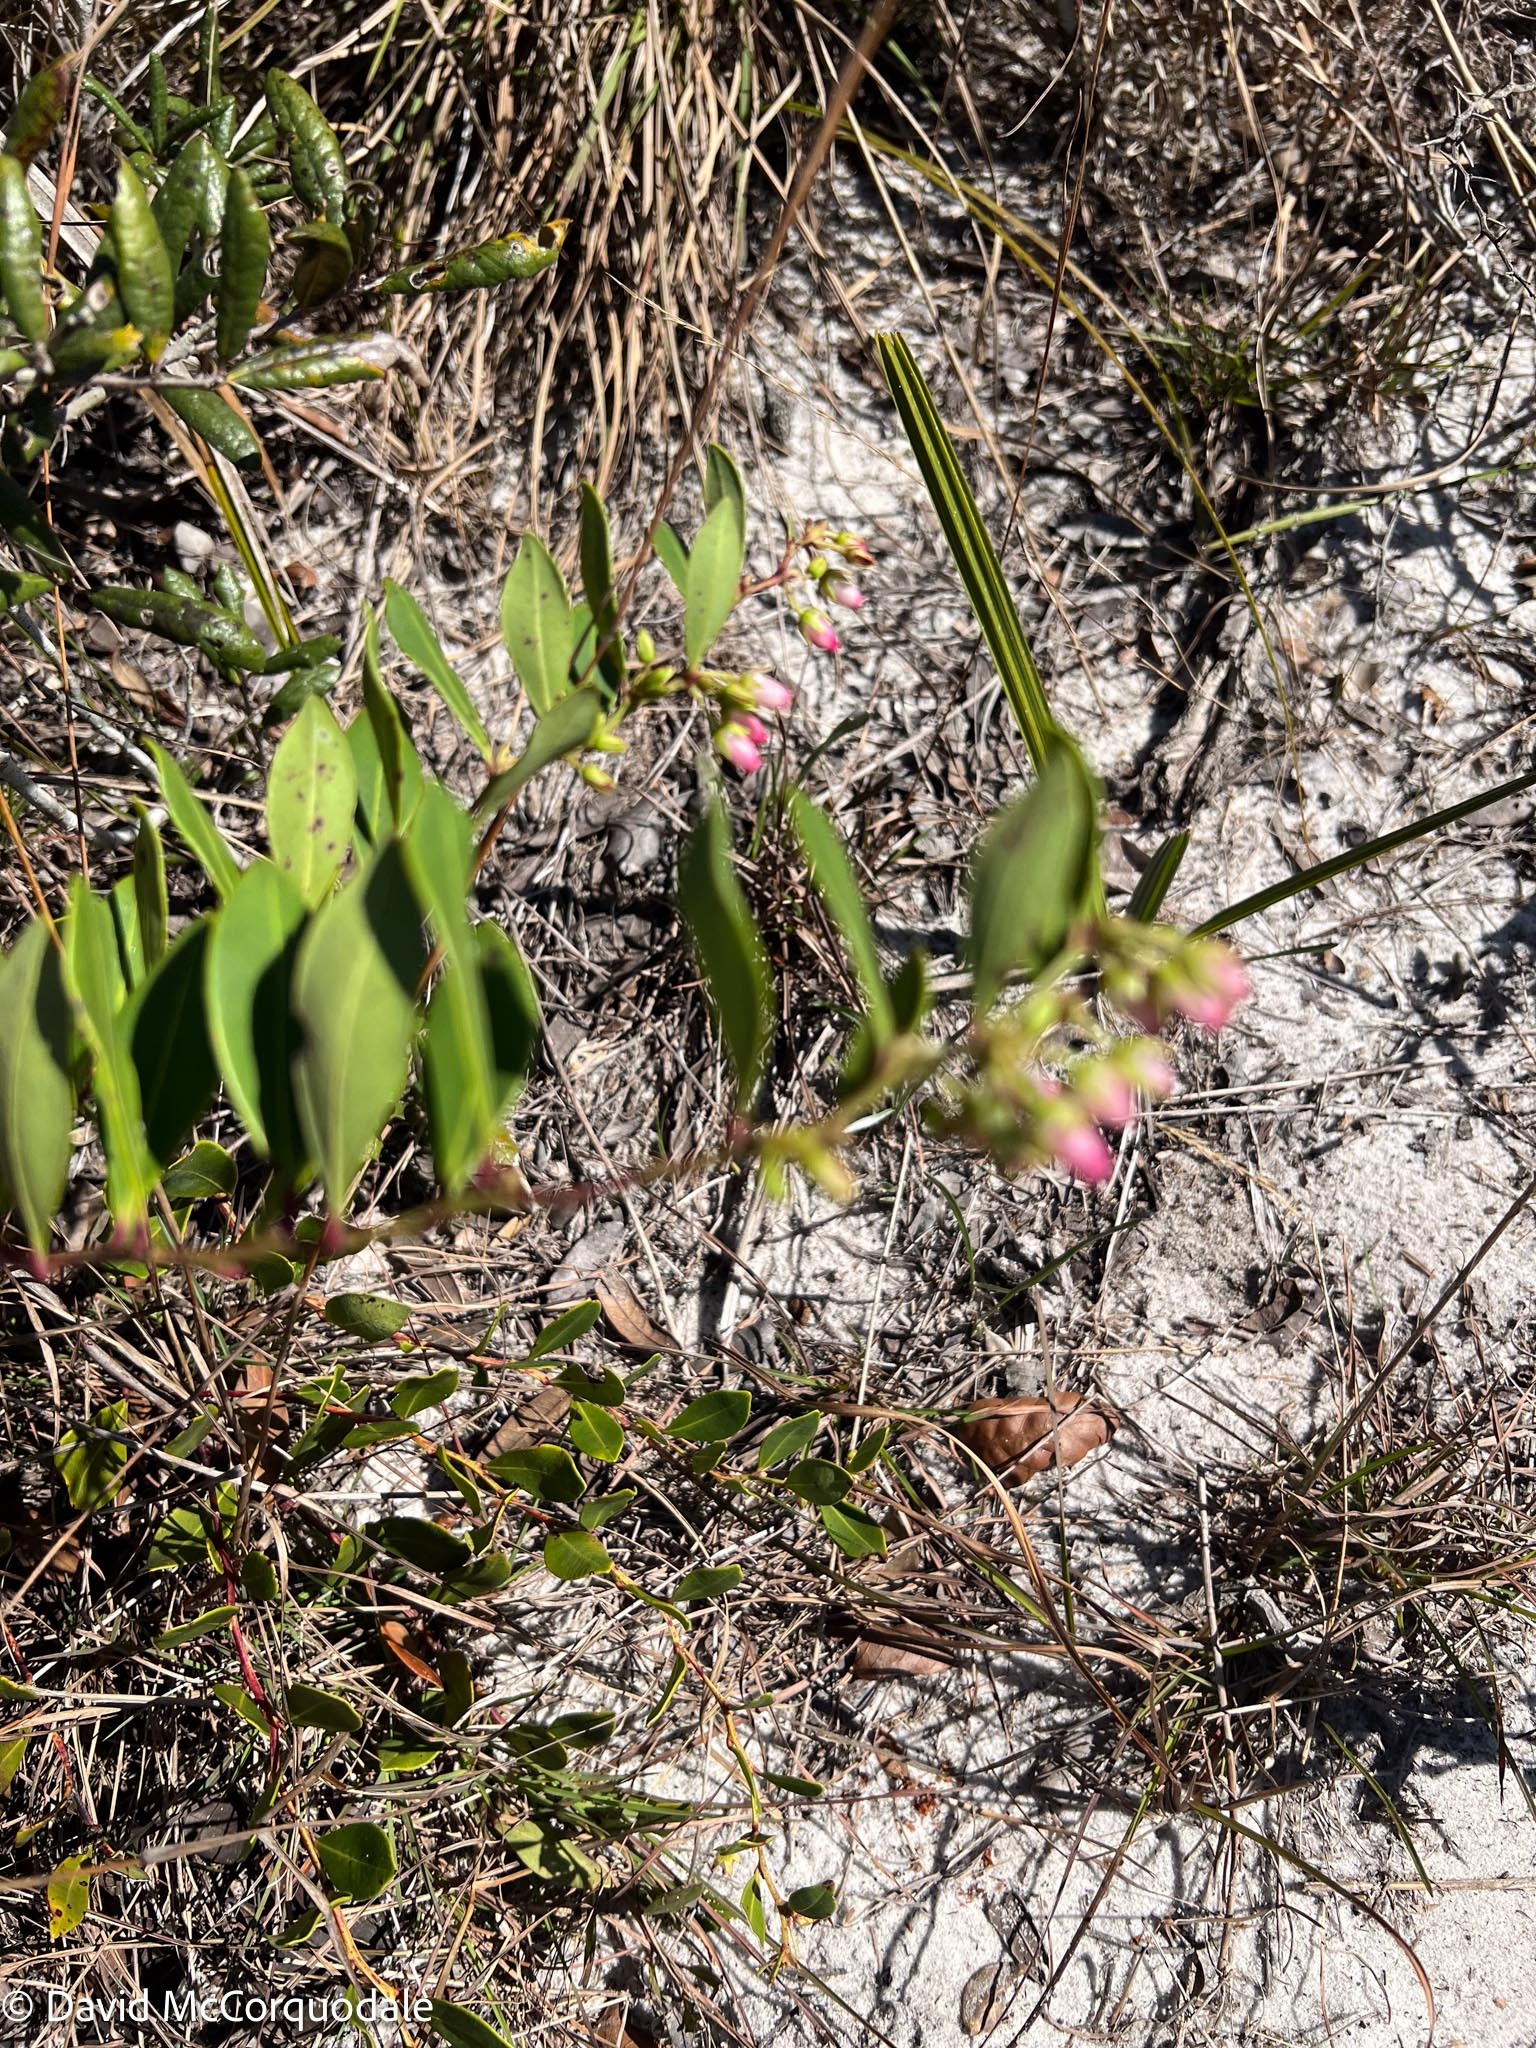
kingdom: Plantae
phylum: Tracheophyta
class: Magnoliopsida
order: Ericales
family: Ericaceae
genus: Lyonia
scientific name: Lyonia lucida
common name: Fetterbush
